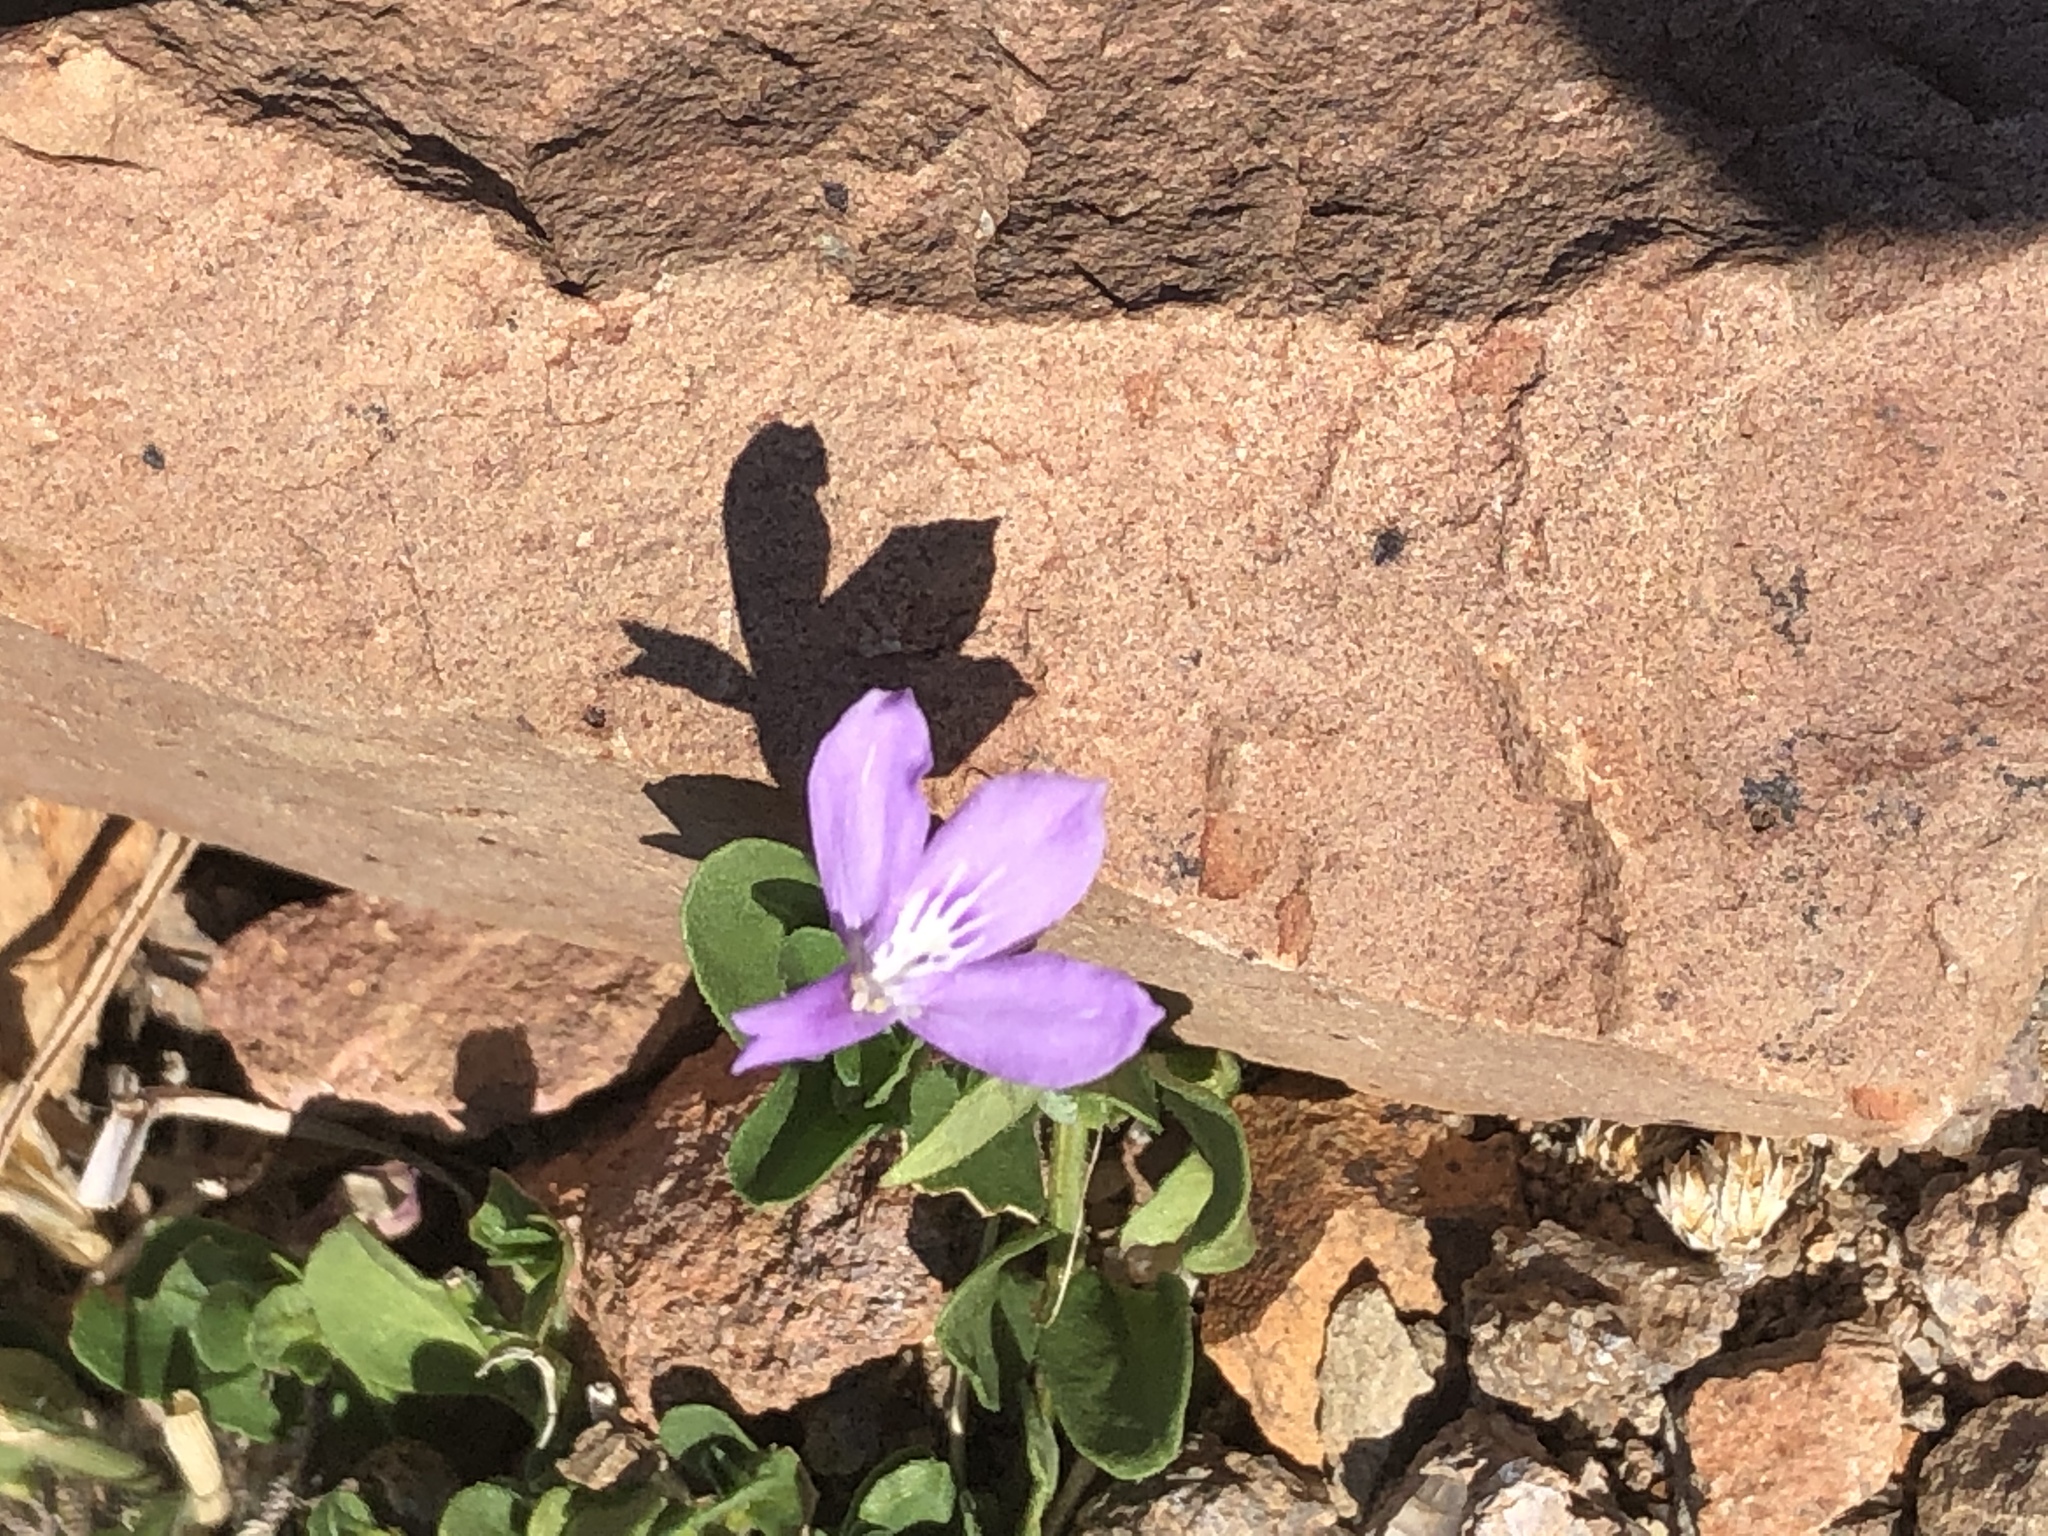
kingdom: Plantae
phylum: Tracheophyta
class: Magnoliopsida
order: Lamiales
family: Acanthaceae
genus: Justicia
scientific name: Justicia pilosella
